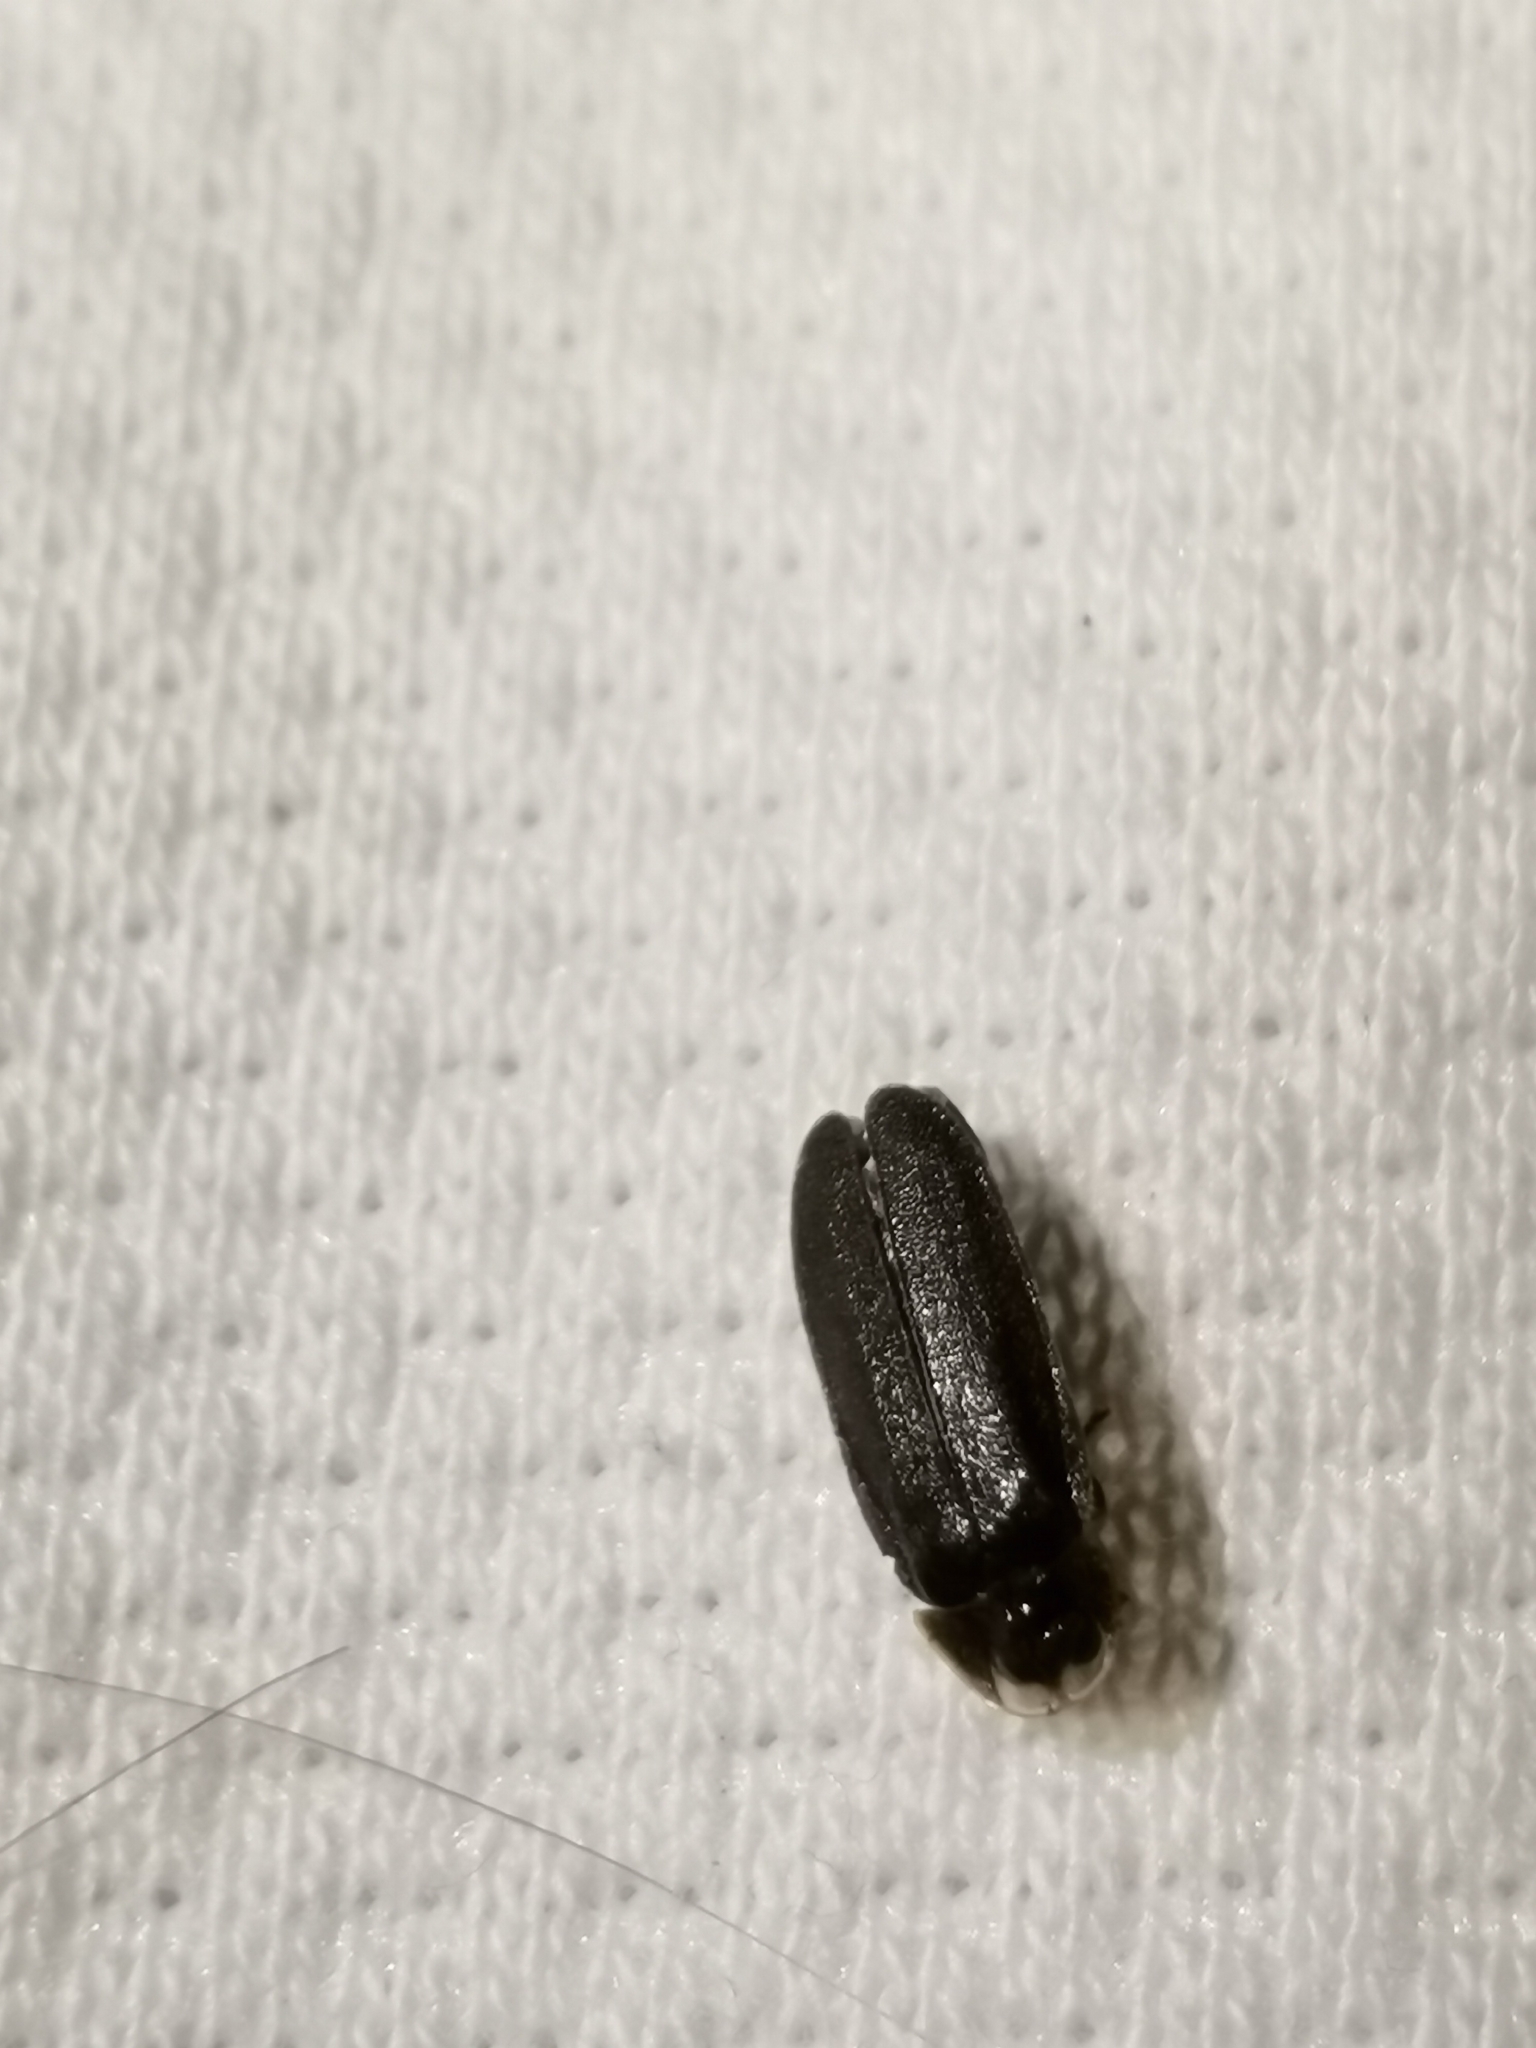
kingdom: Animalia
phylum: Arthropoda
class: Insecta
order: Coleoptera
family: Lampyridae
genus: Lamprohiza
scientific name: Lamprohiza splendidula
